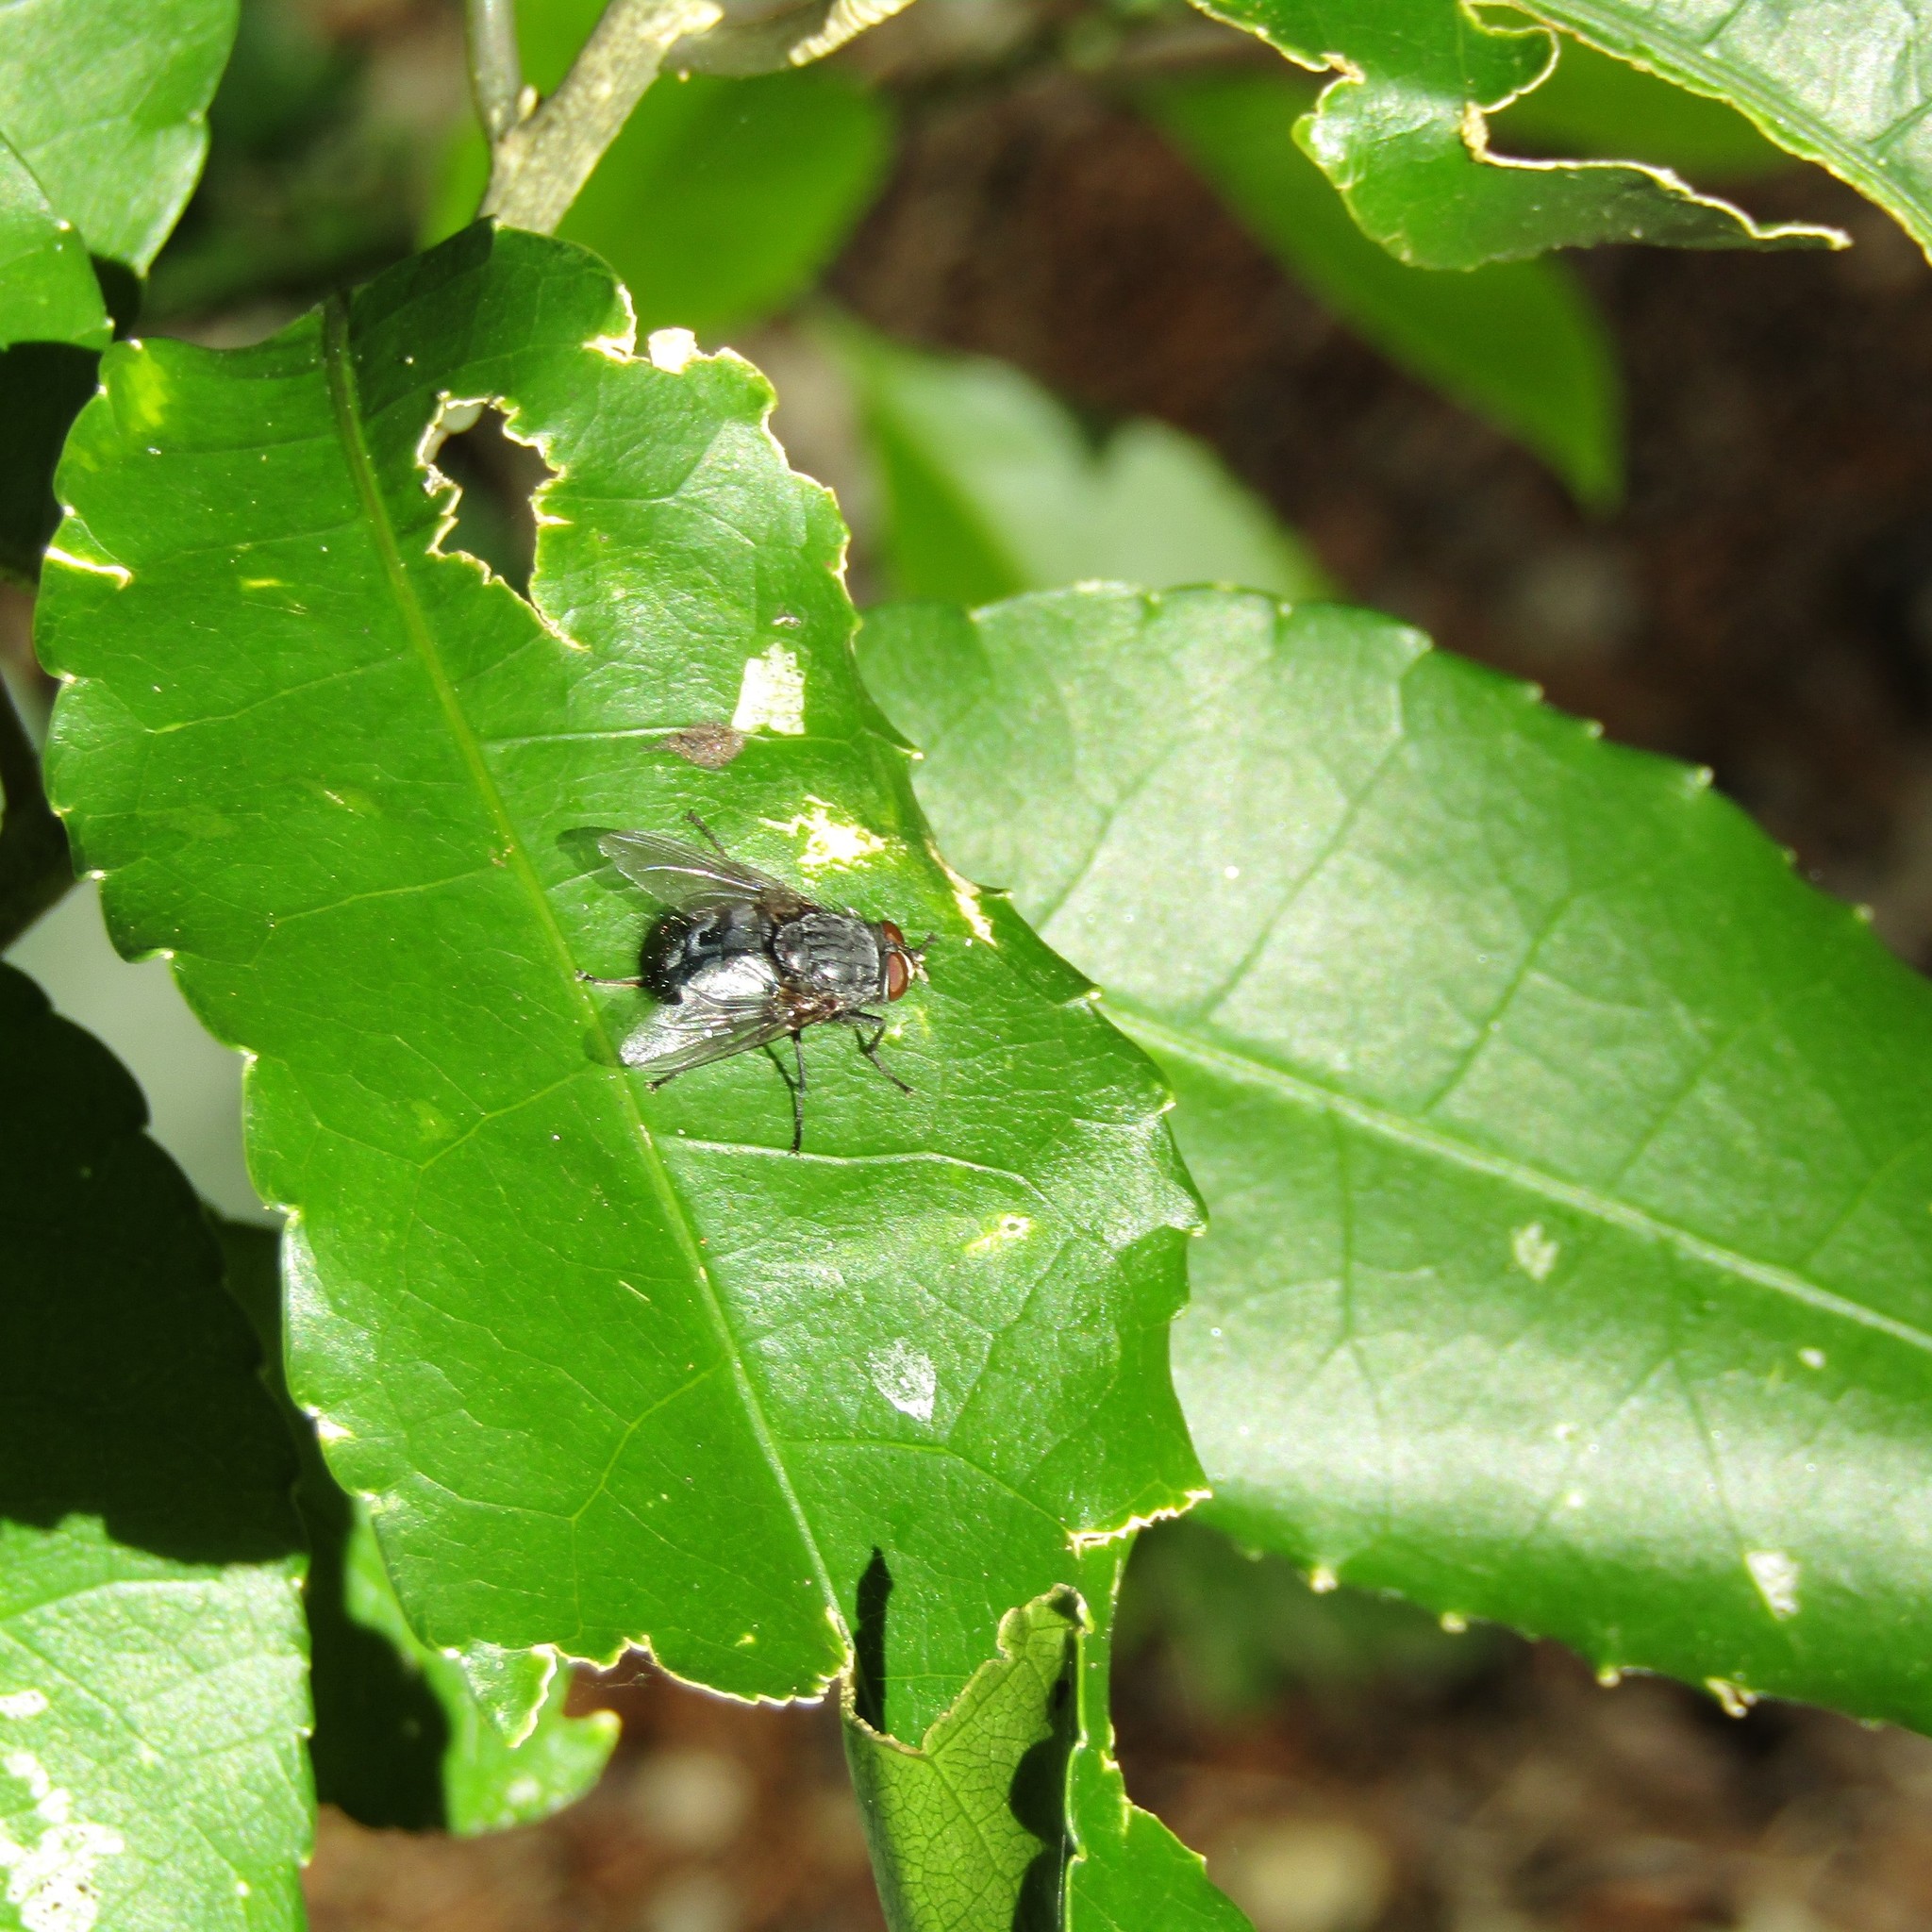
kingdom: Plantae
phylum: Tracheophyta
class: Magnoliopsida
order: Malpighiales
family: Violaceae
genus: Melicytus
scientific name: Melicytus ramiflorus
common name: Mahoe
